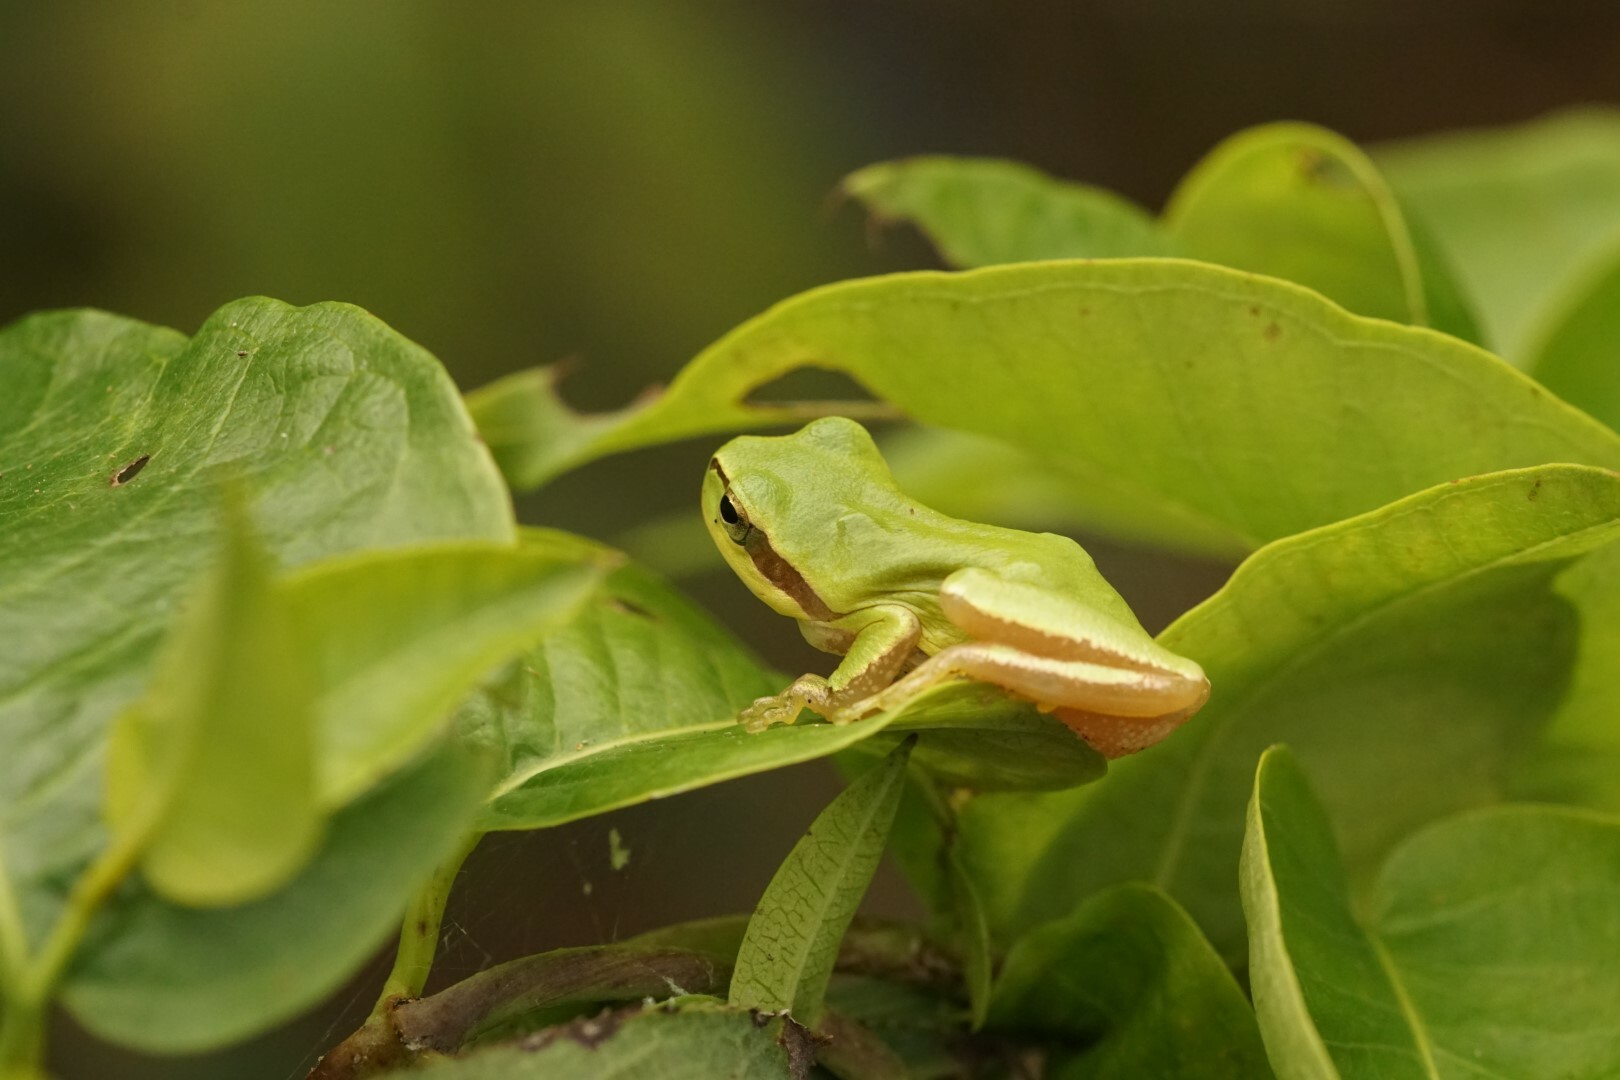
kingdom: Animalia
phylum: Chordata
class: Amphibia
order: Anura
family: Hylidae
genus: Hyla
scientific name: Hyla orientalis
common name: Caucasian treefrog
